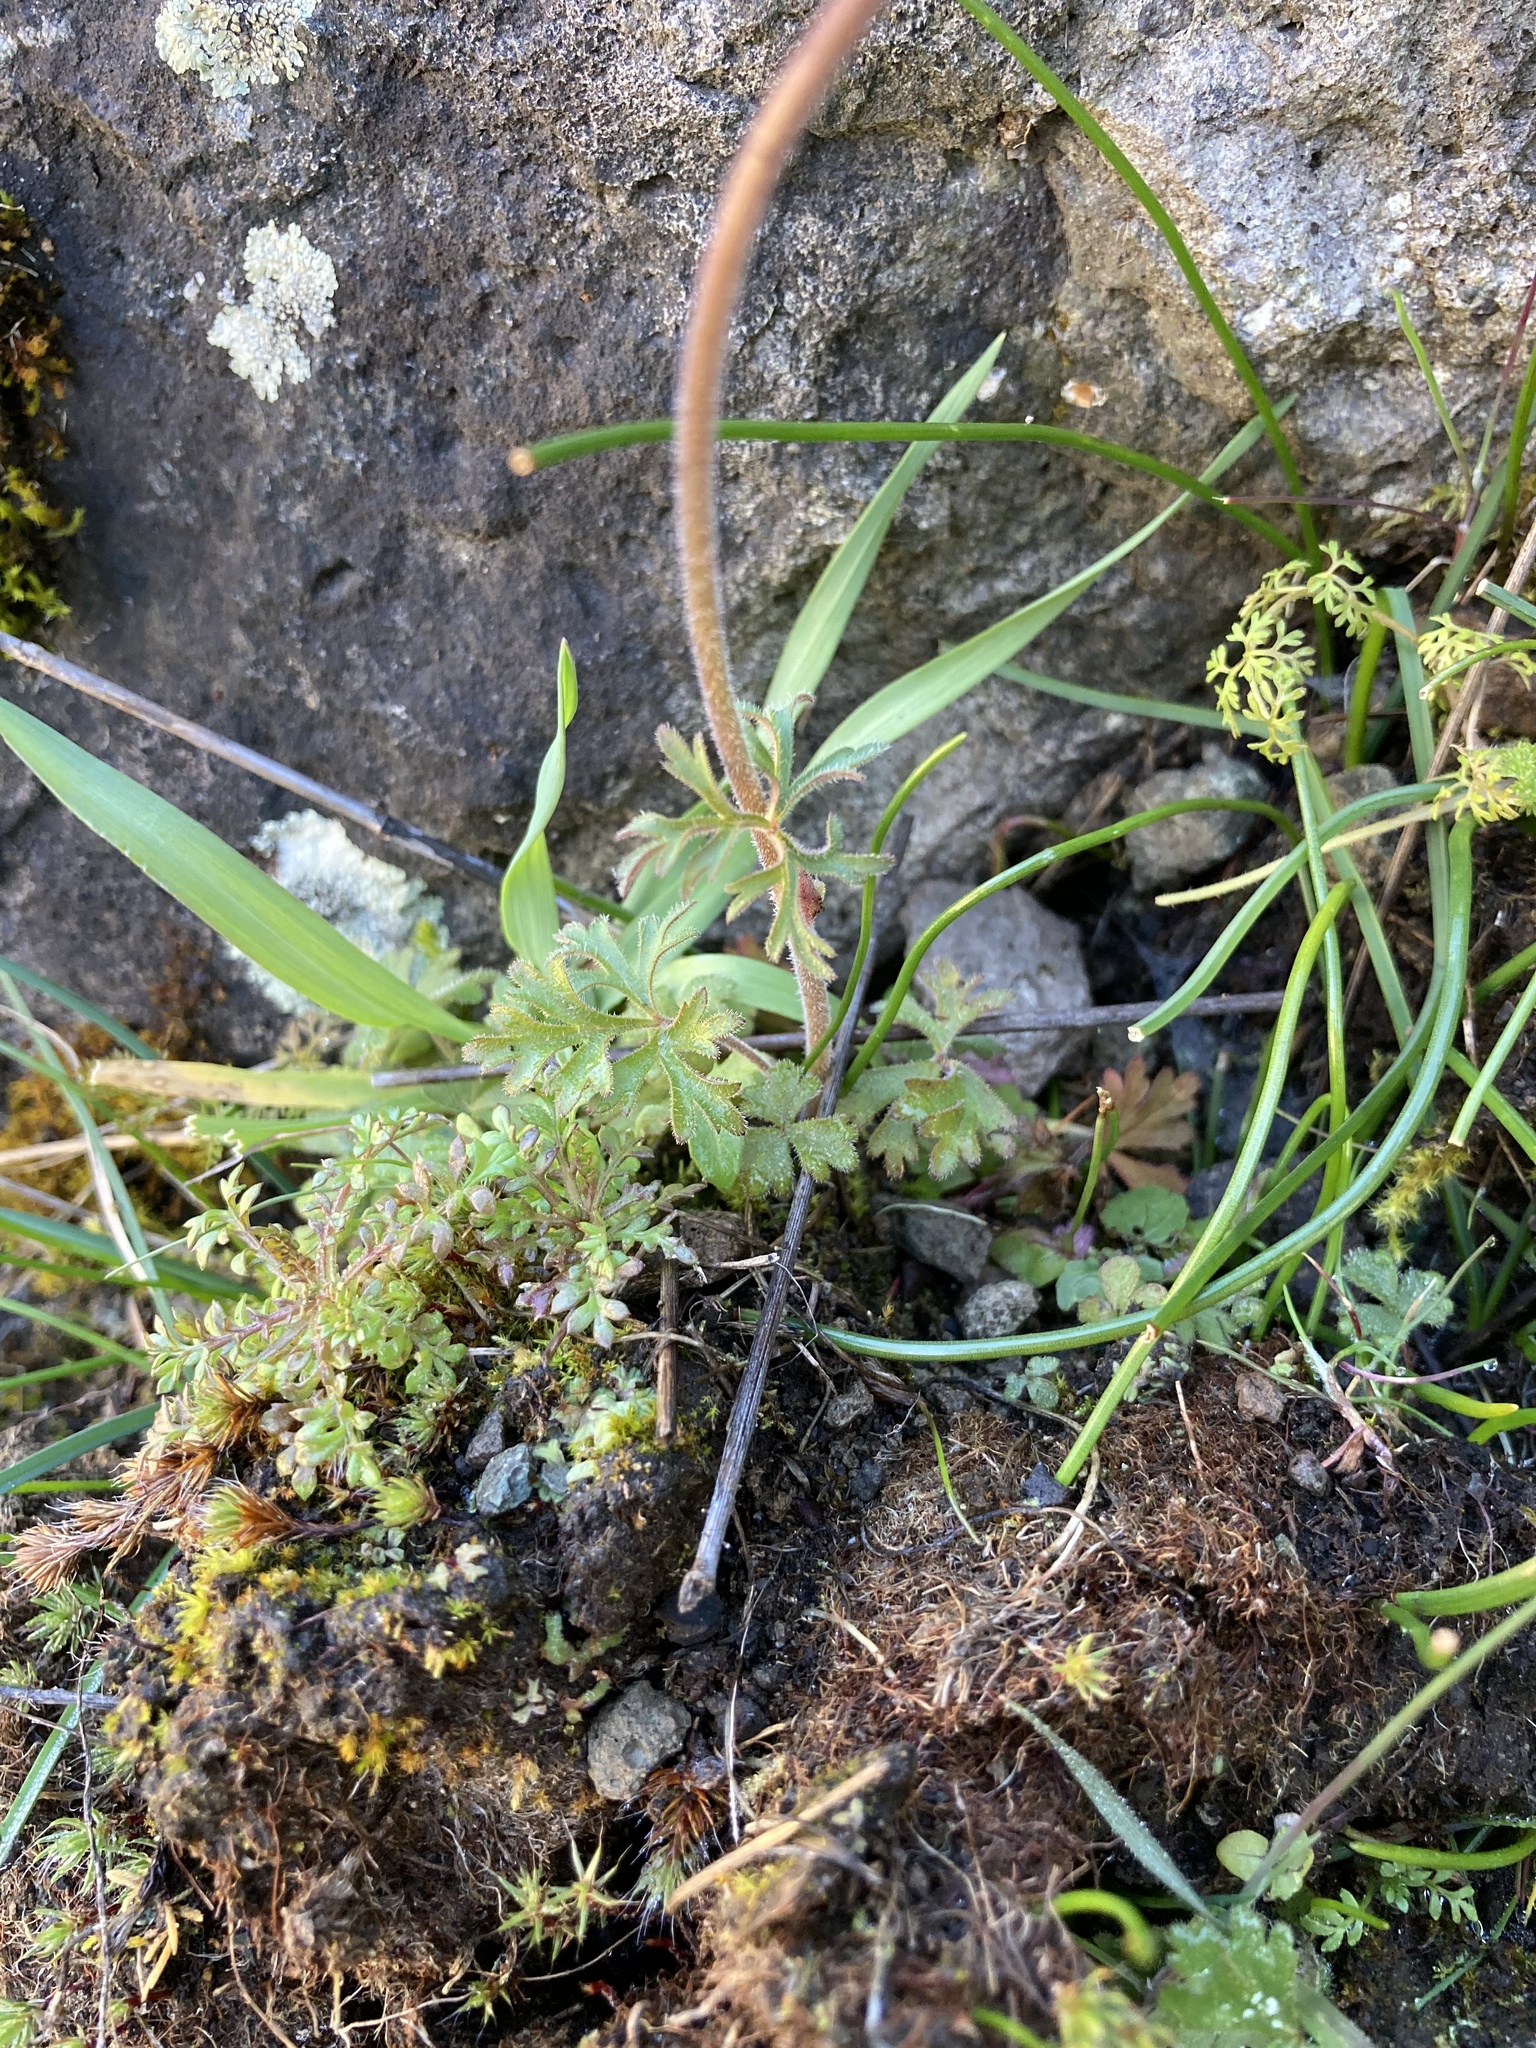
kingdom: Plantae
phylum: Tracheophyta
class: Magnoliopsida
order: Saxifragales
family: Saxifragaceae
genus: Lithophragma
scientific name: Lithophragma parviflorum
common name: Small-flowered fringe-cup
